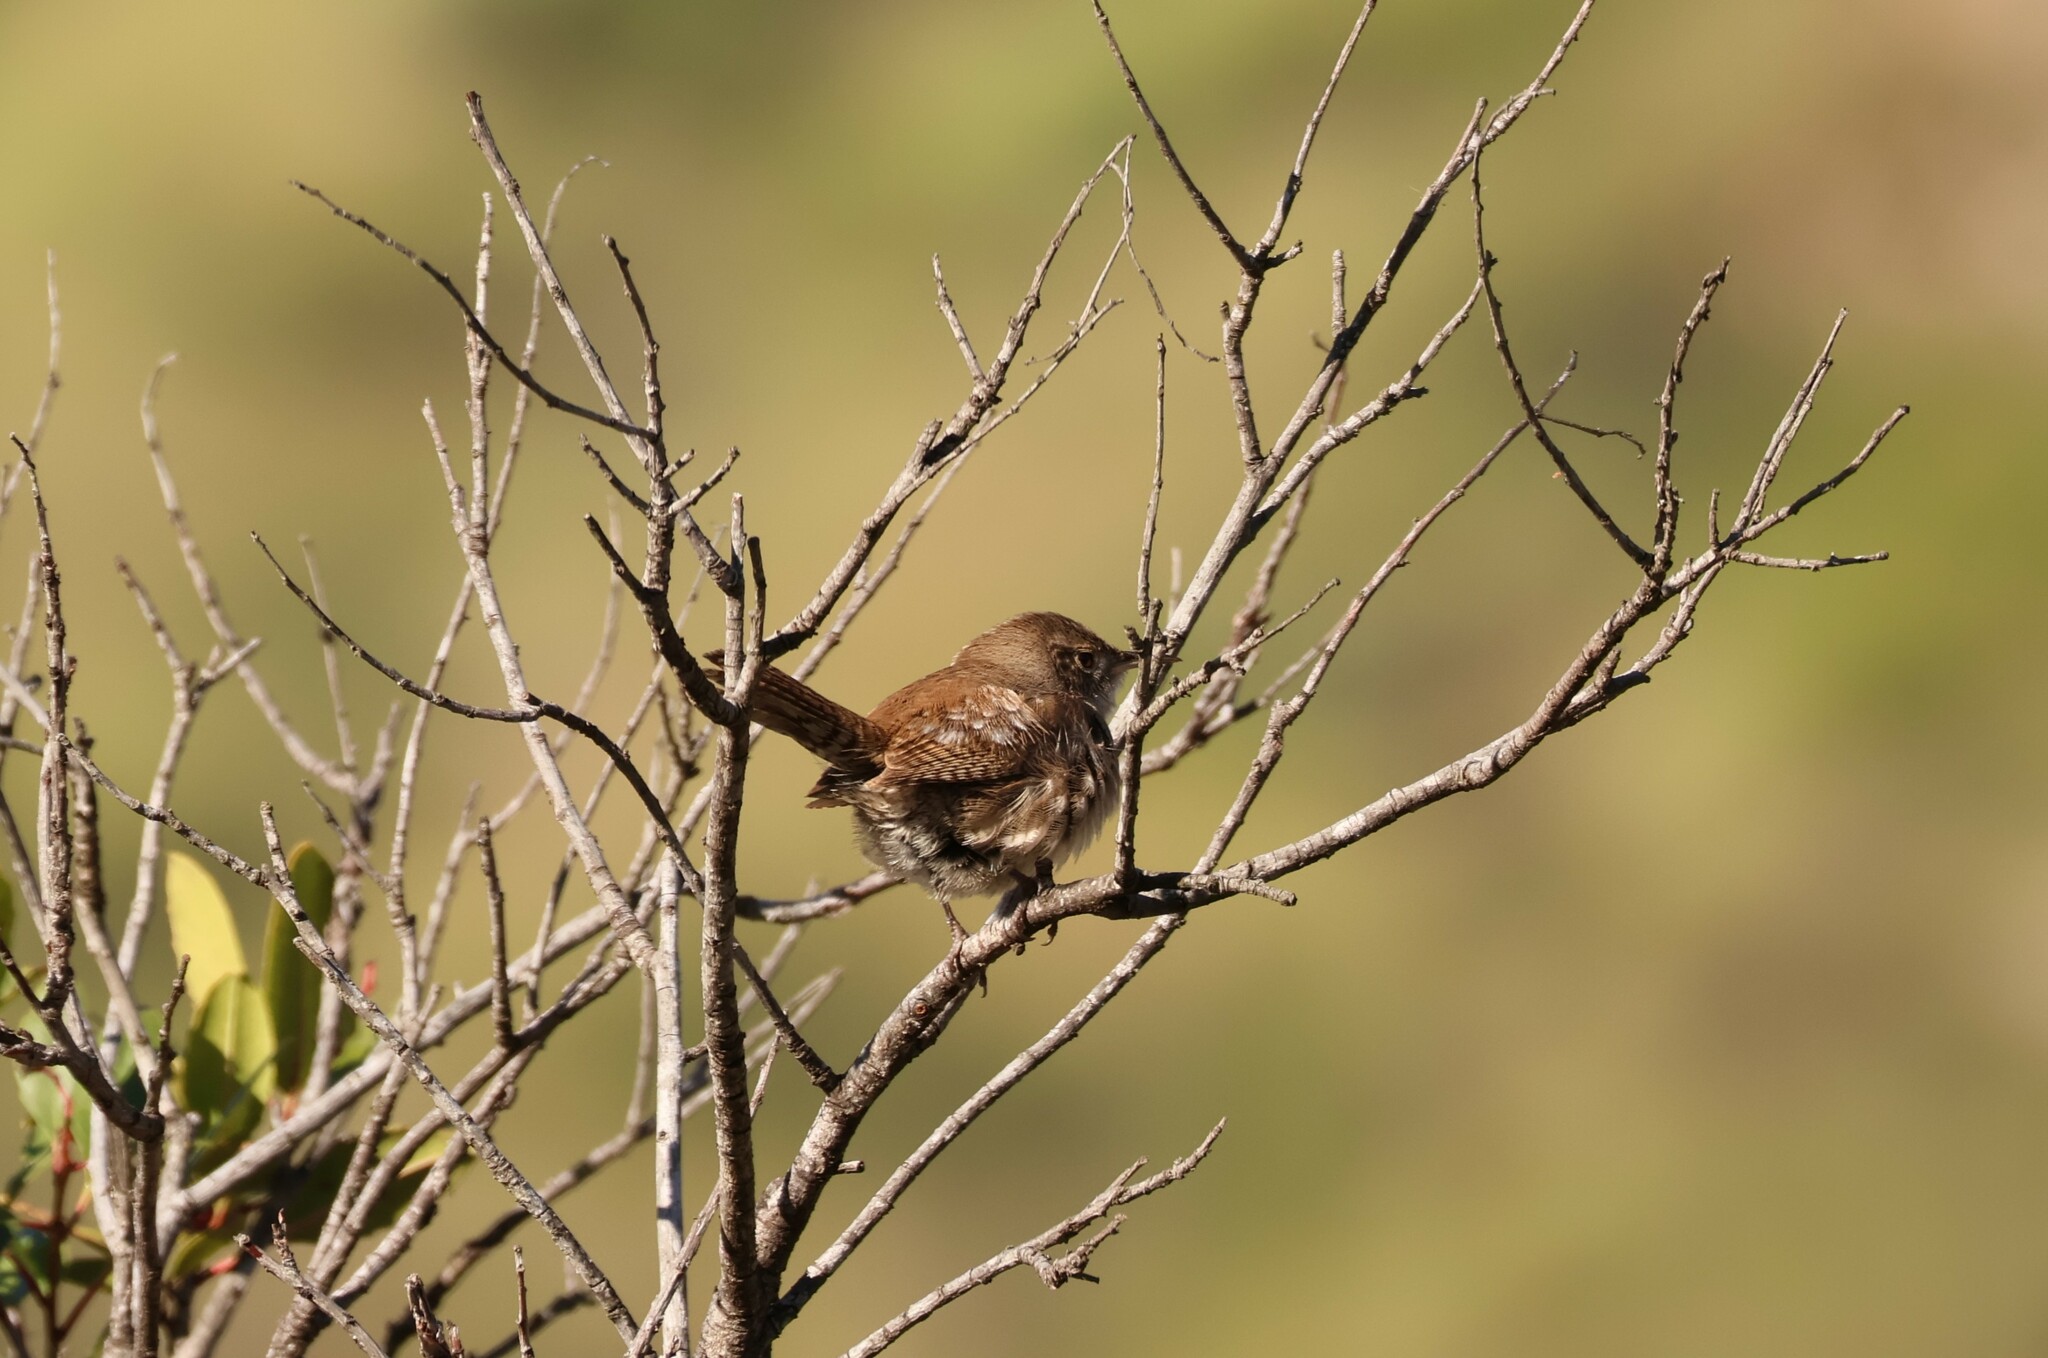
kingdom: Animalia
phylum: Chordata
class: Aves
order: Passeriformes
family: Troglodytidae
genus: Troglodytes
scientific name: Troglodytes aedon
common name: House wren
